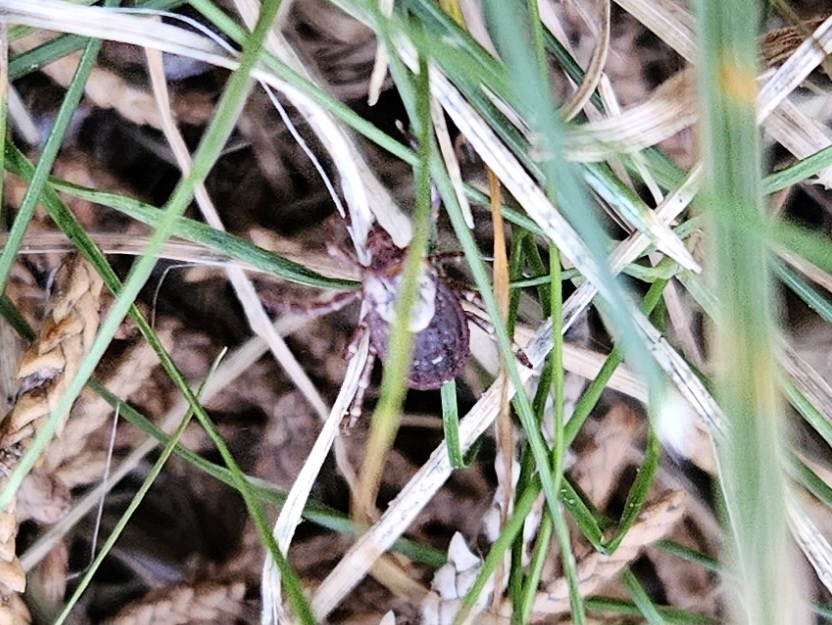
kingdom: Animalia
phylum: Arthropoda
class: Arachnida
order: Ixodida
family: Ixodidae
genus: Dermacentor
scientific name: Dermacentor variabilis
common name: American dog tick
